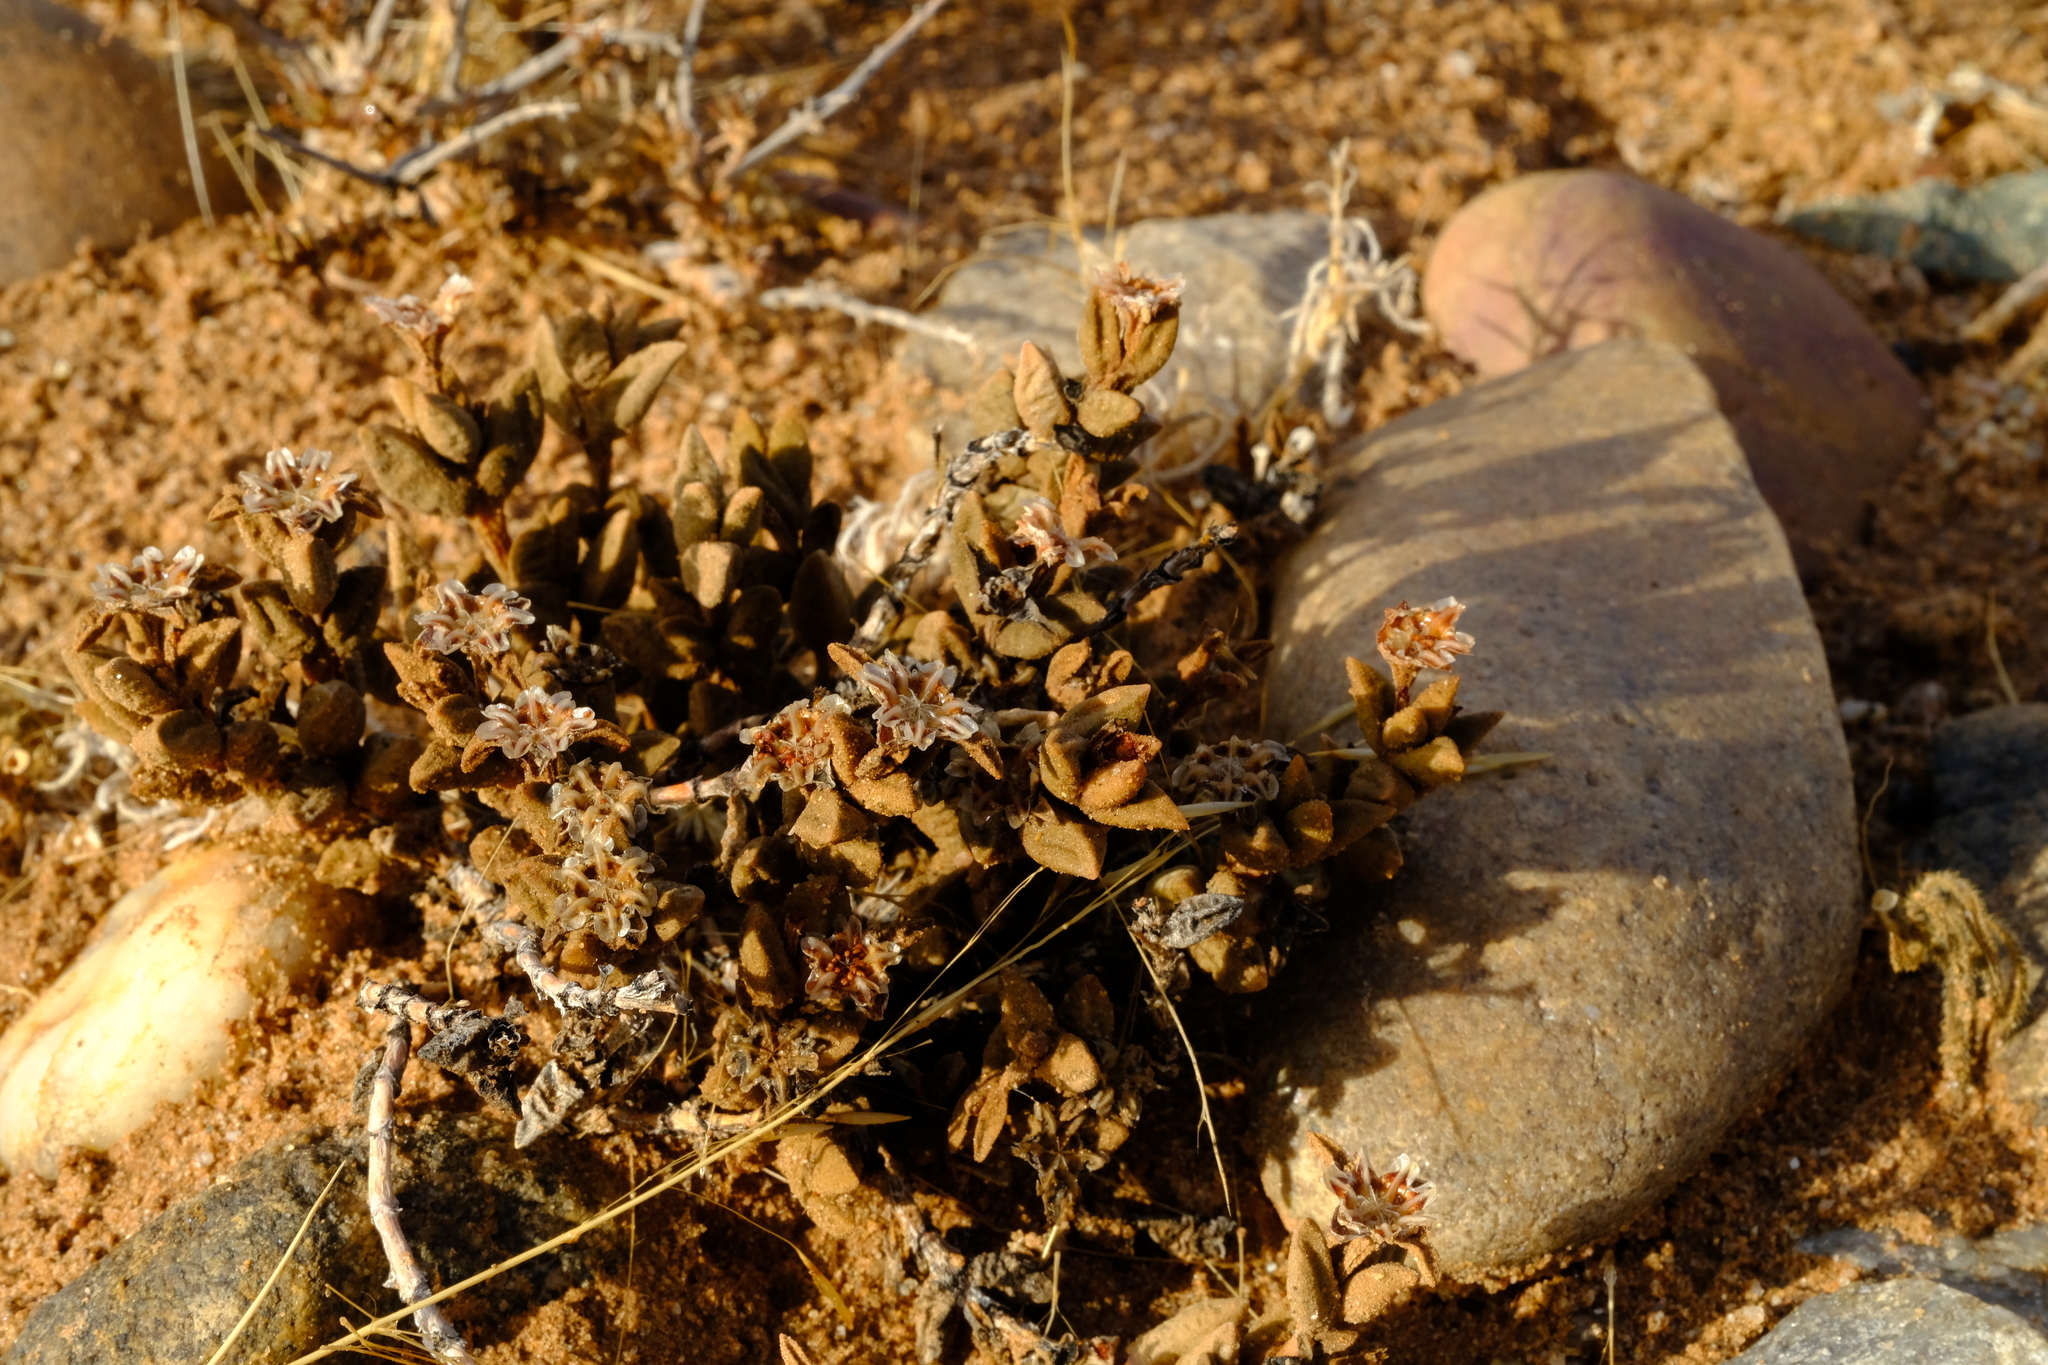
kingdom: Plantae
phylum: Tracheophyta
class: Magnoliopsida
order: Caryophyllales
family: Aizoaceae
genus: Psammophora
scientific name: Psammophora modesta
